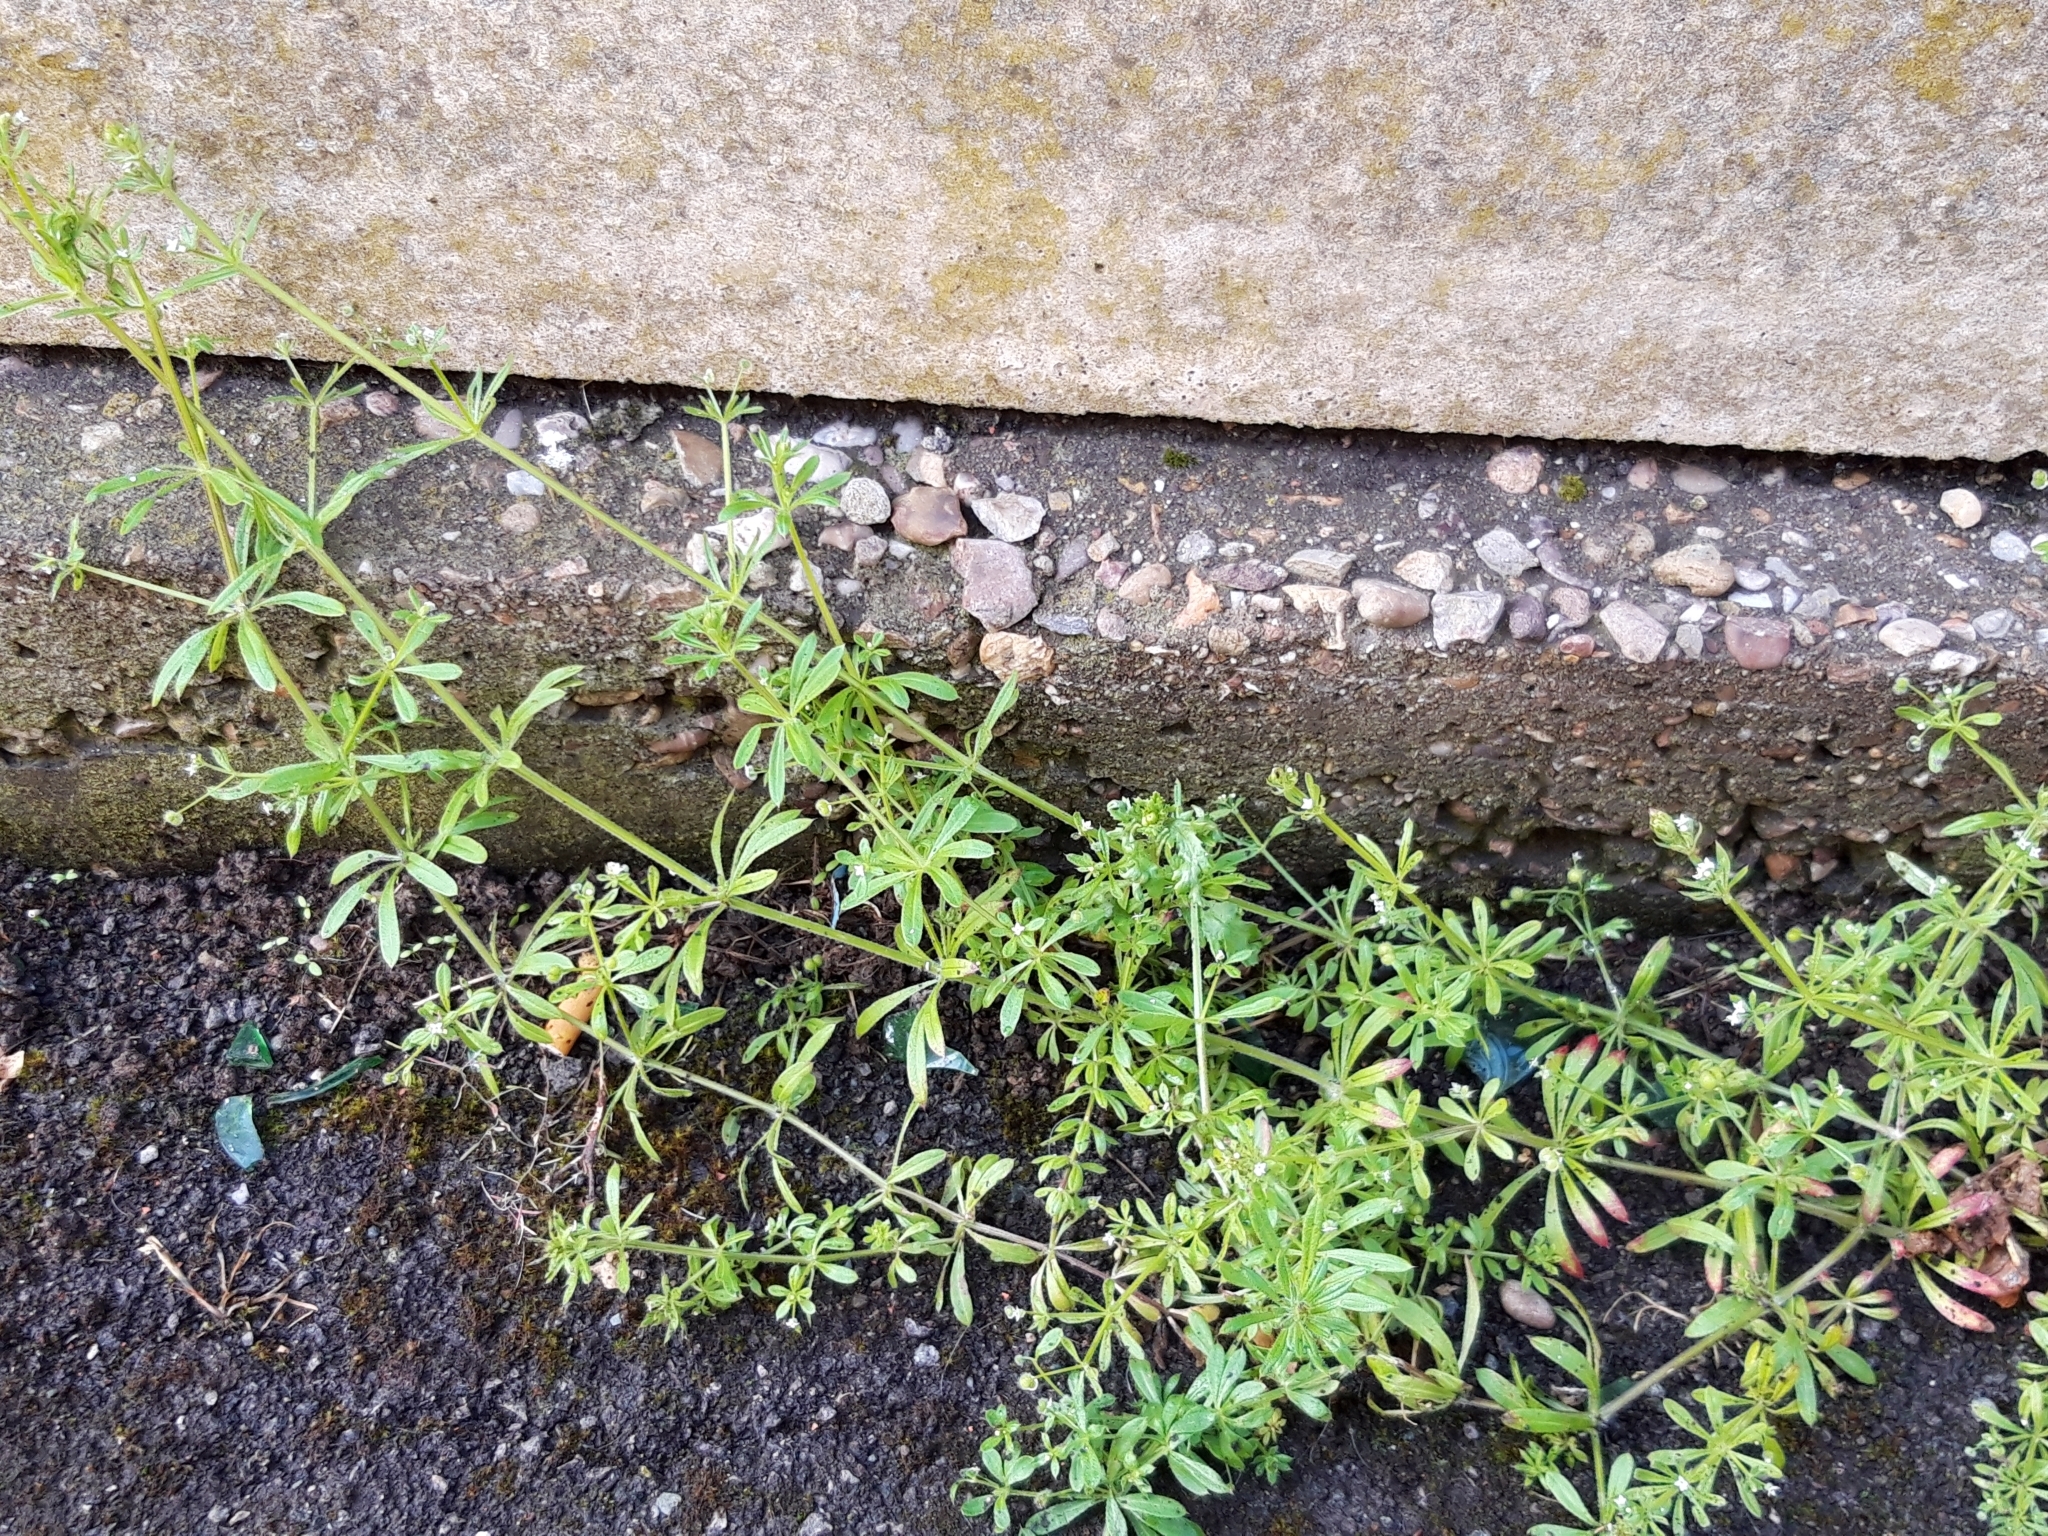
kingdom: Plantae
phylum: Tracheophyta
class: Magnoliopsida
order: Gentianales
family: Rubiaceae
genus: Galium
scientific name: Galium aparine
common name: Cleavers
